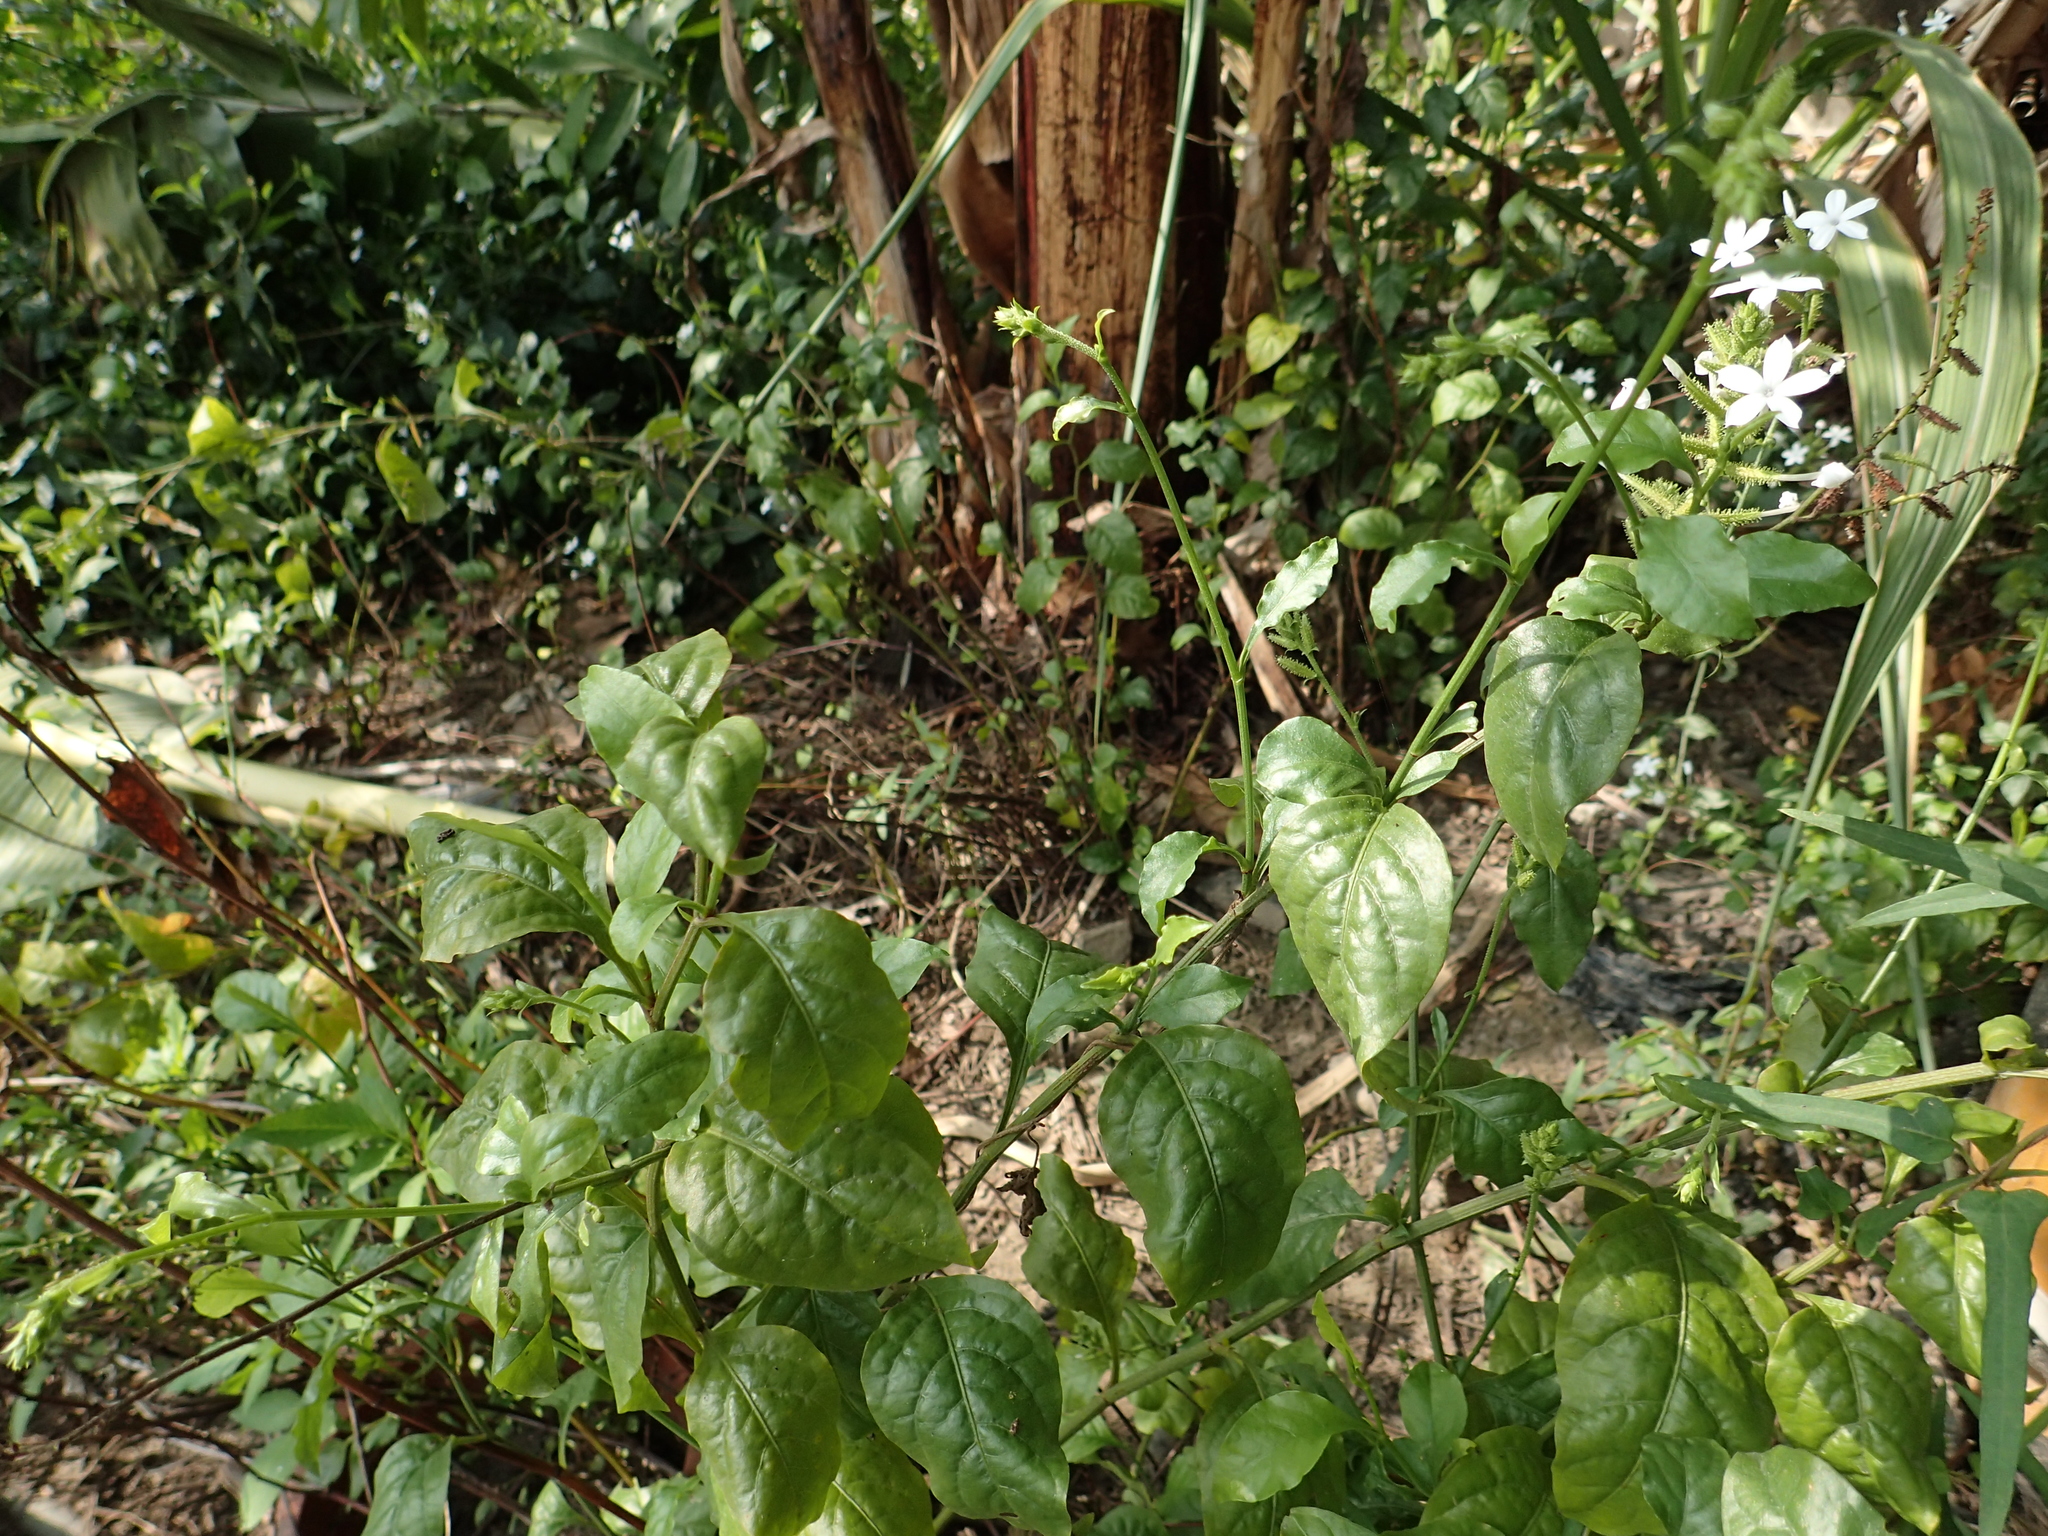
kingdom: Plantae
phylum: Tracheophyta
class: Magnoliopsida
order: Caryophyllales
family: Plumbaginaceae
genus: Plumbago
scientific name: Plumbago zeylanica
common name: Doctorbush
